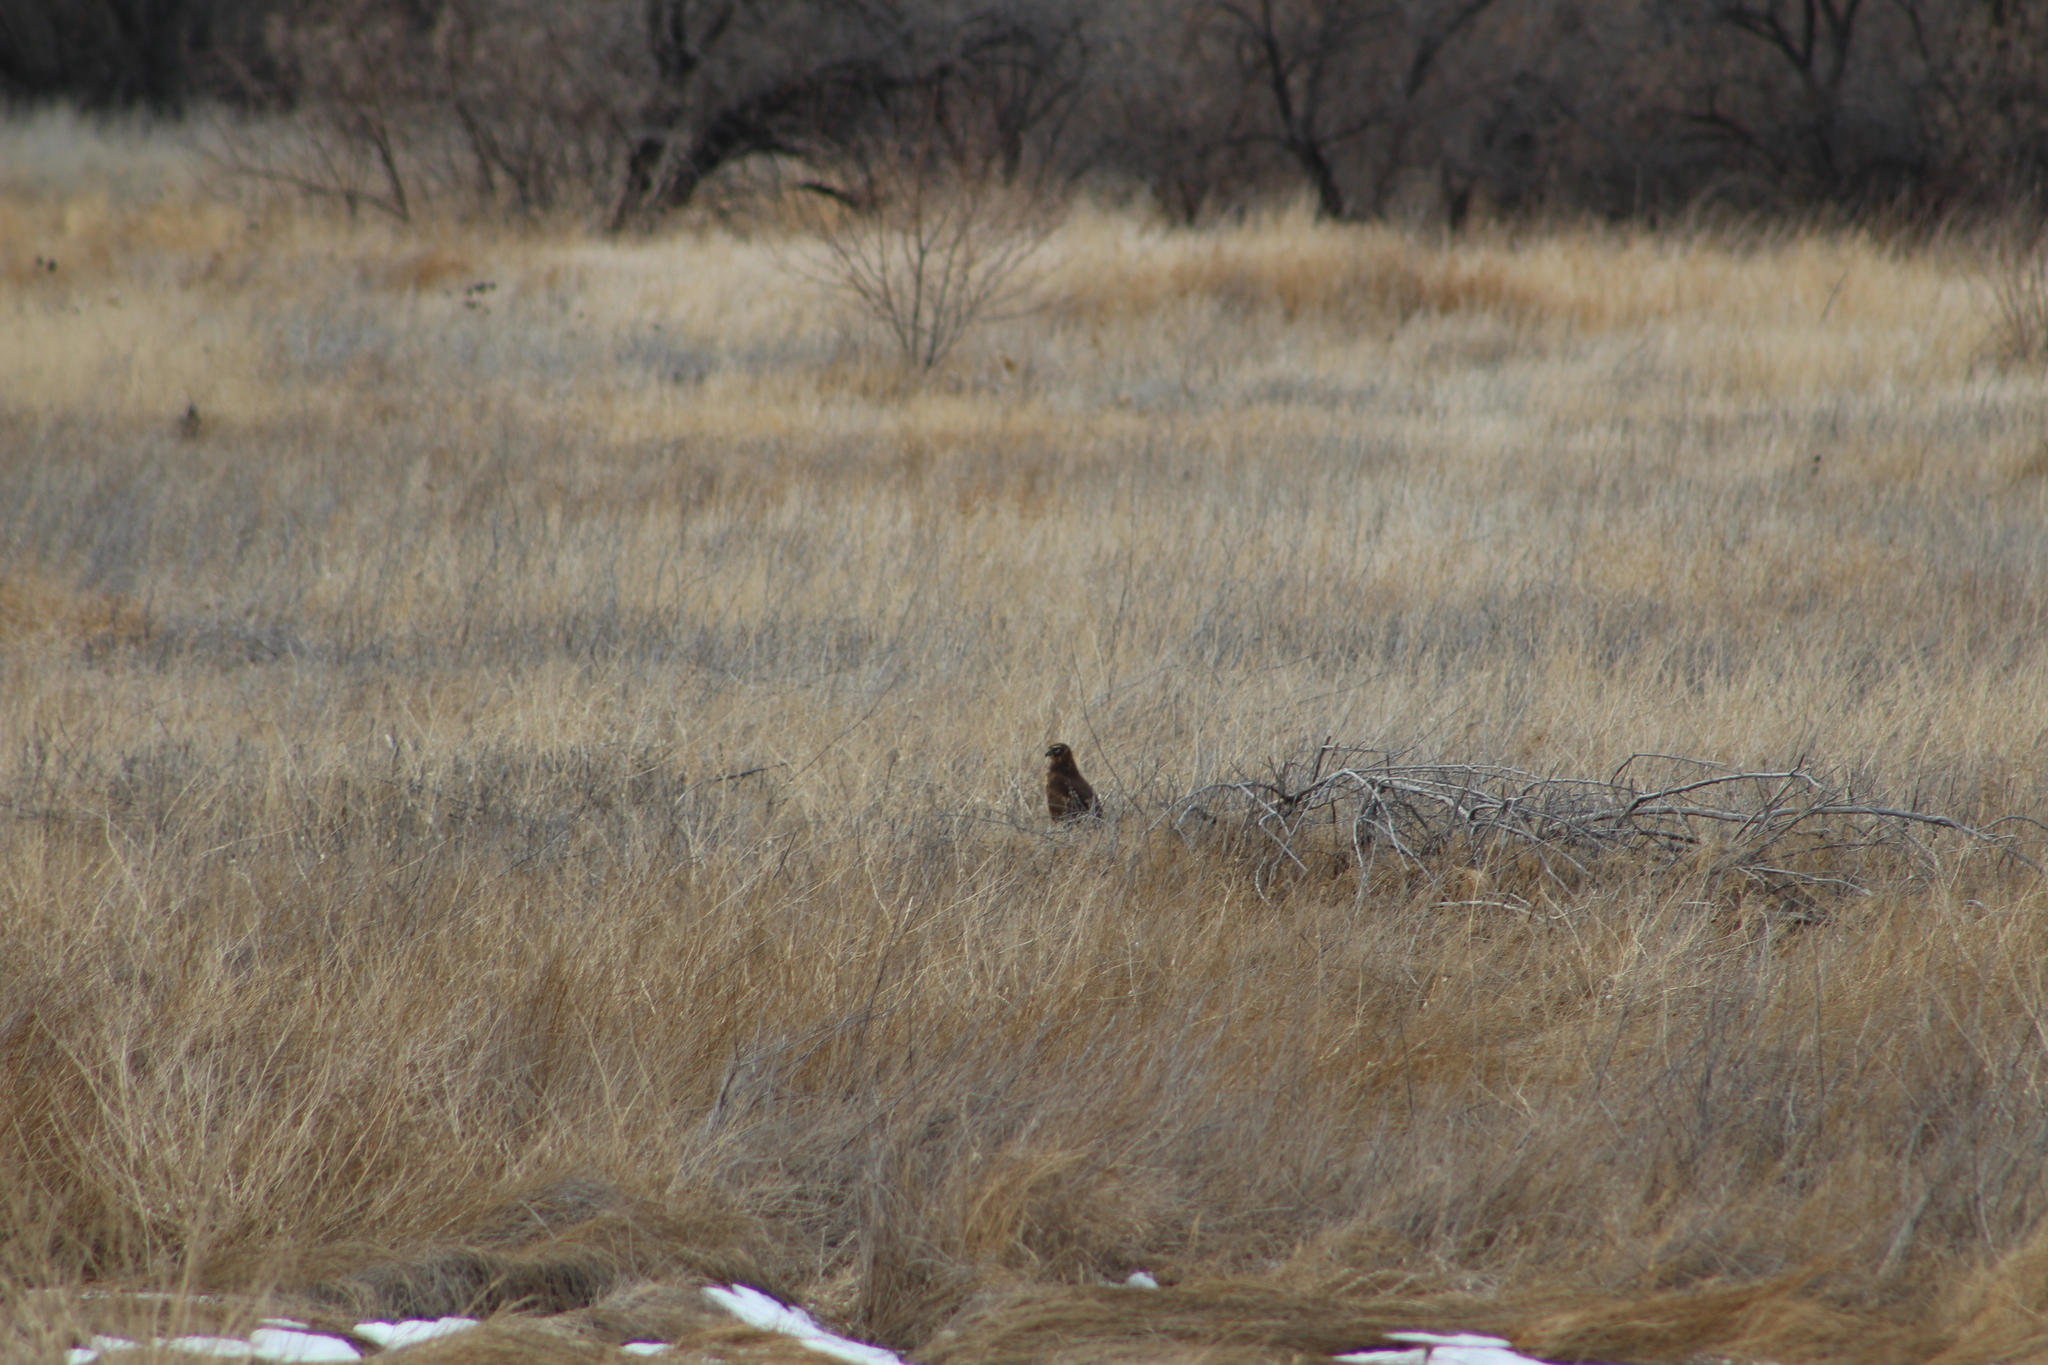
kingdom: Animalia
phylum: Chordata
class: Aves
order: Accipitriformes
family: Accipitridae
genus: Circus
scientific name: Circus cyaneus
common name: Hen harrier
